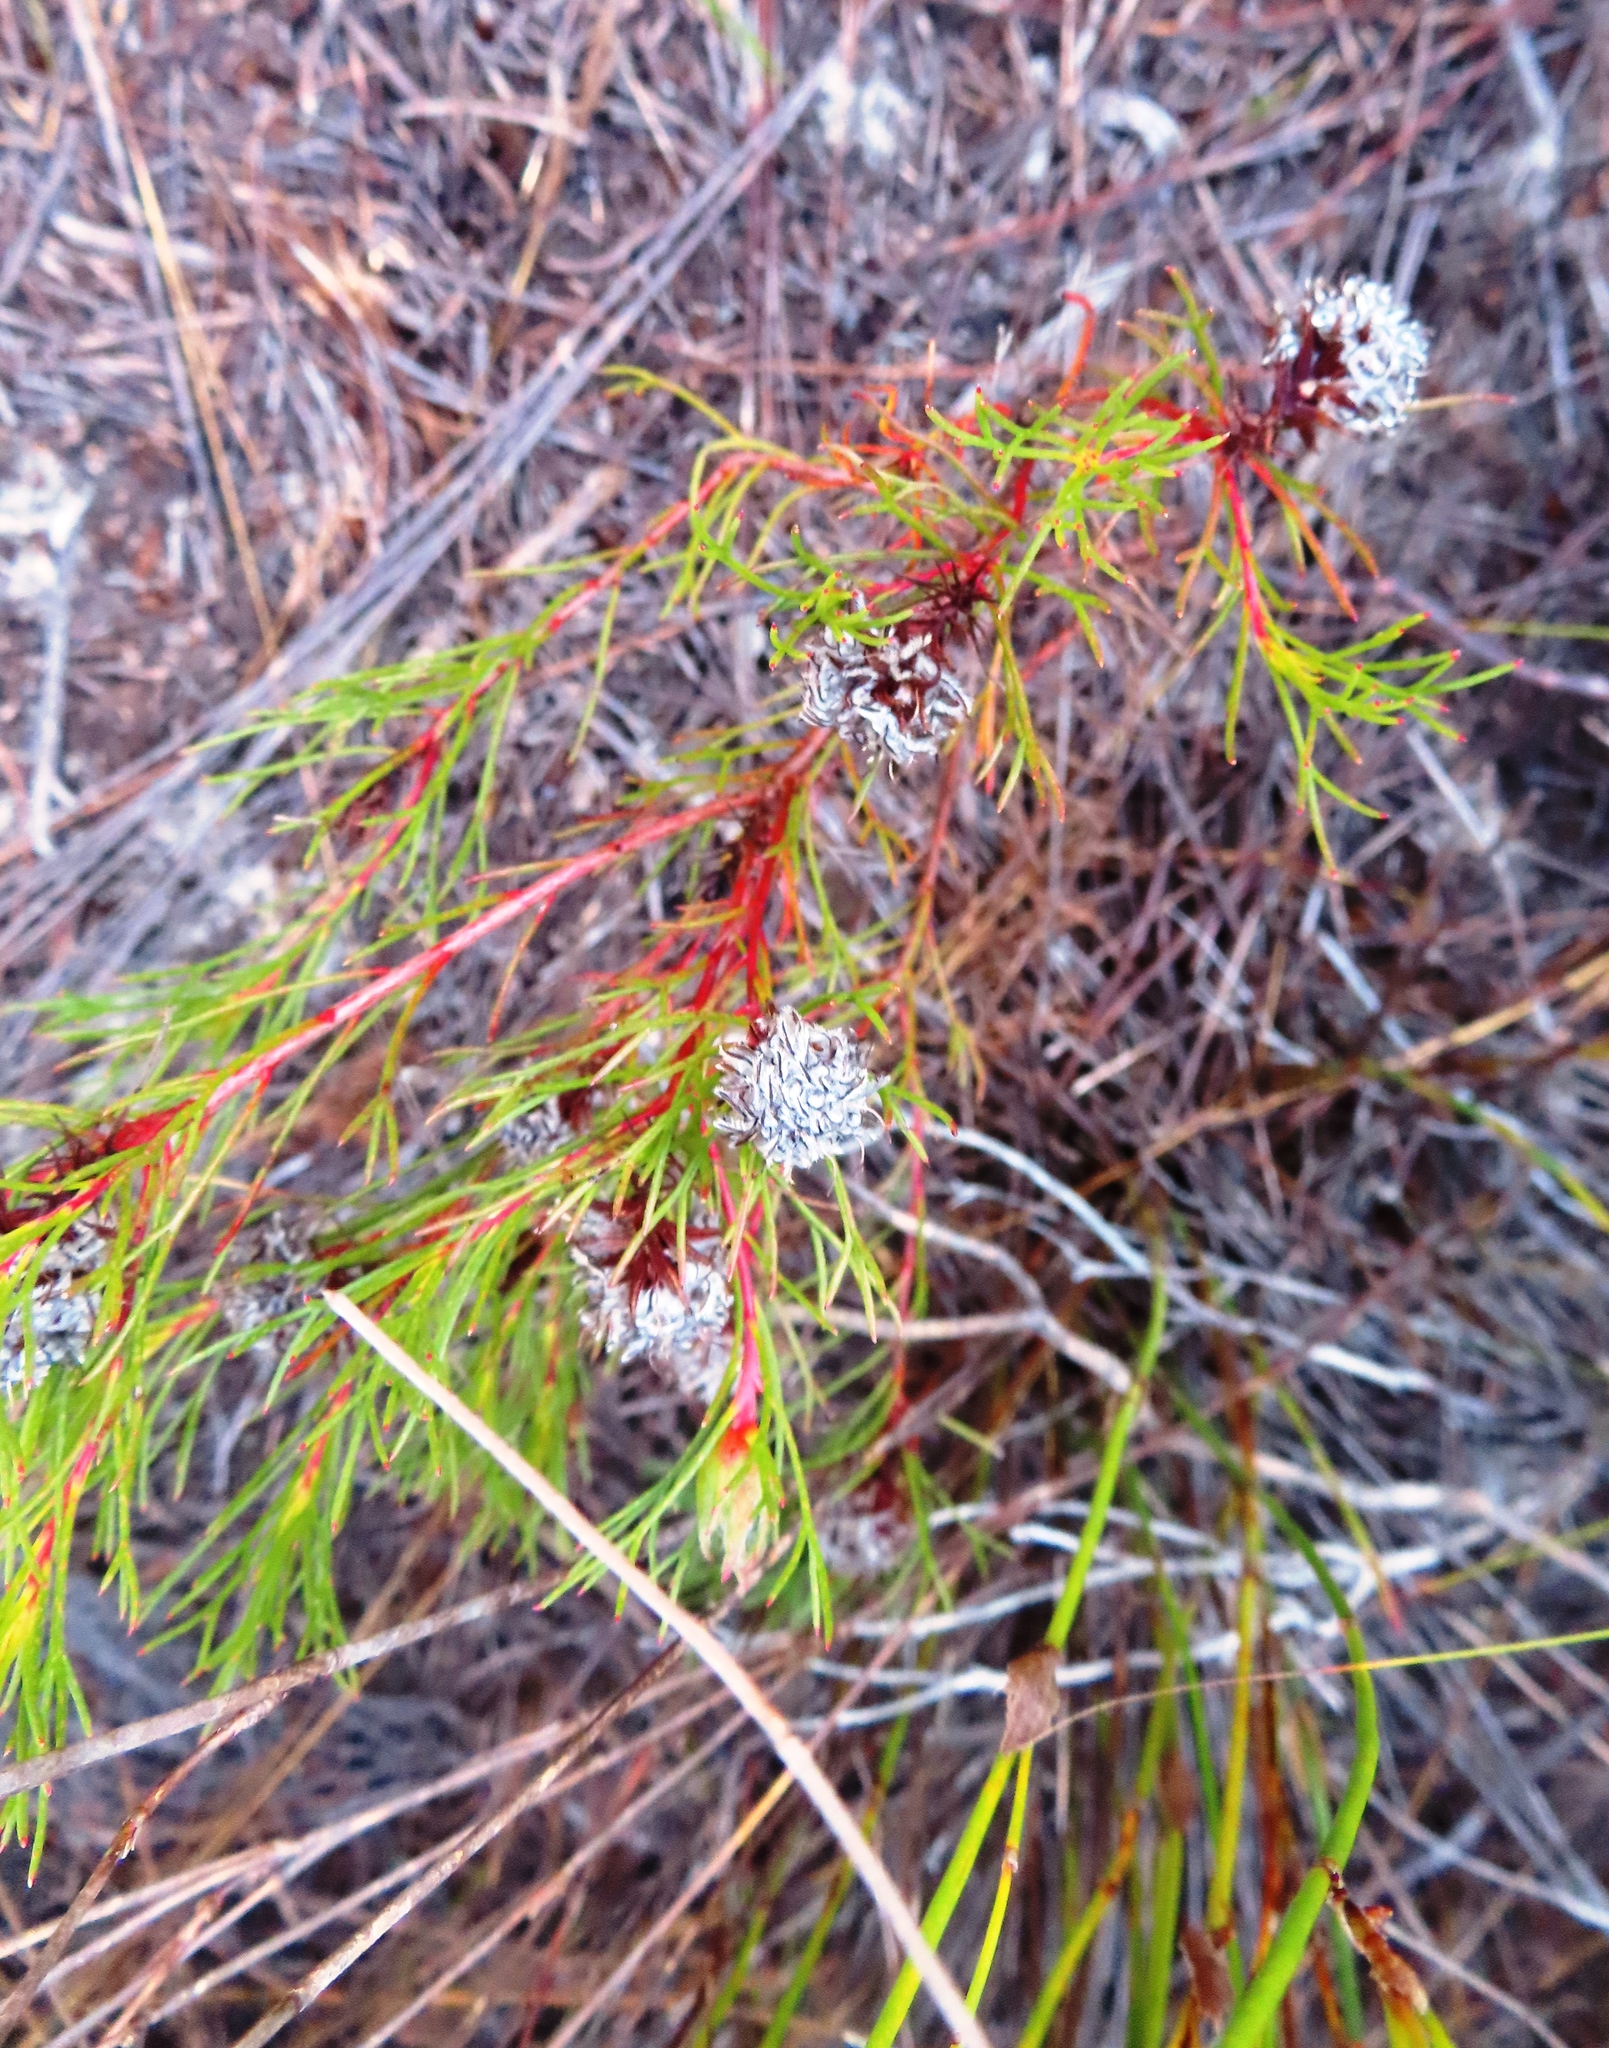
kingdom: Plantae
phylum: Tracheophyta
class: Magnoliopsida
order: Proteales
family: Proteaceae
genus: Serruria
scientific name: Serruria bolusii
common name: Agulhas spiderhead
